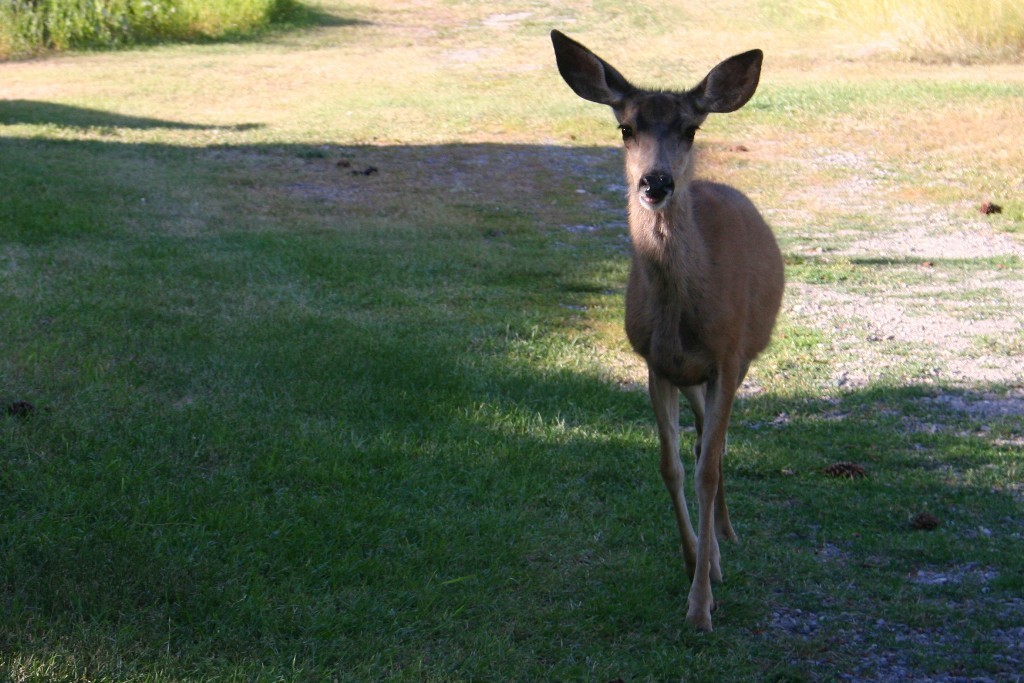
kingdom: Animalia
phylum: Chordata
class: Mammalia
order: Artiodactyla
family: Cervidae
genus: Odocoileus
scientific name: Odocoileus hemionus
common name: Mule deer
